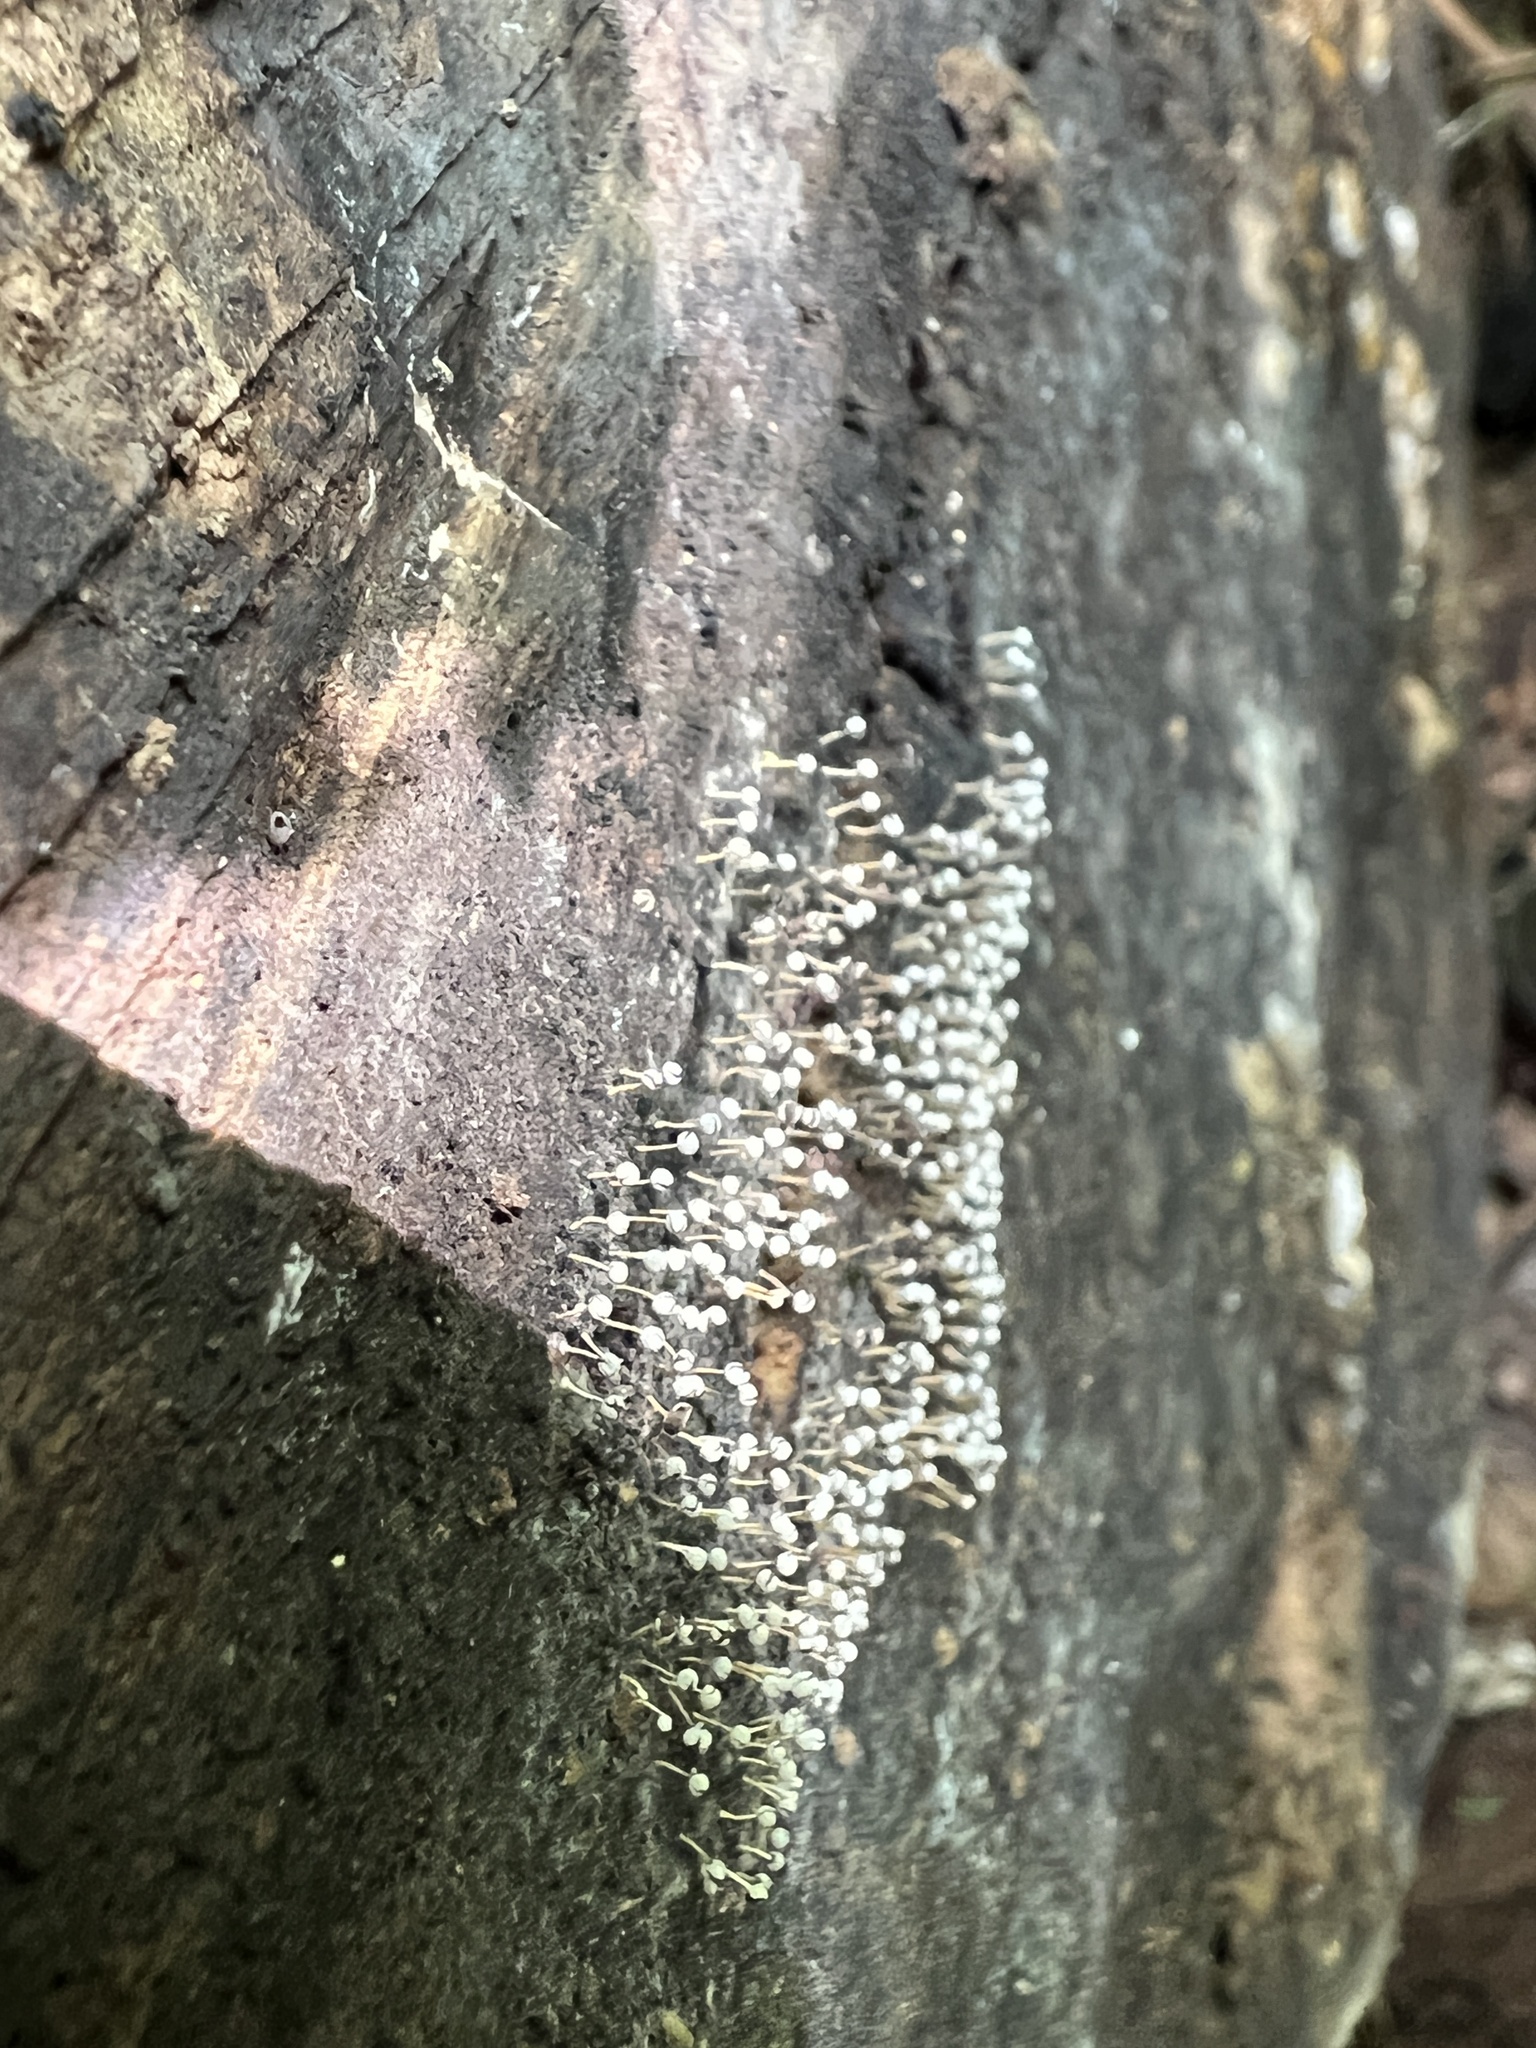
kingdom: Protozoa
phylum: Mycetozoa
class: Myxomycetes
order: Physarales
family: Physaraceae
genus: Physarum
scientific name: Physarum album
